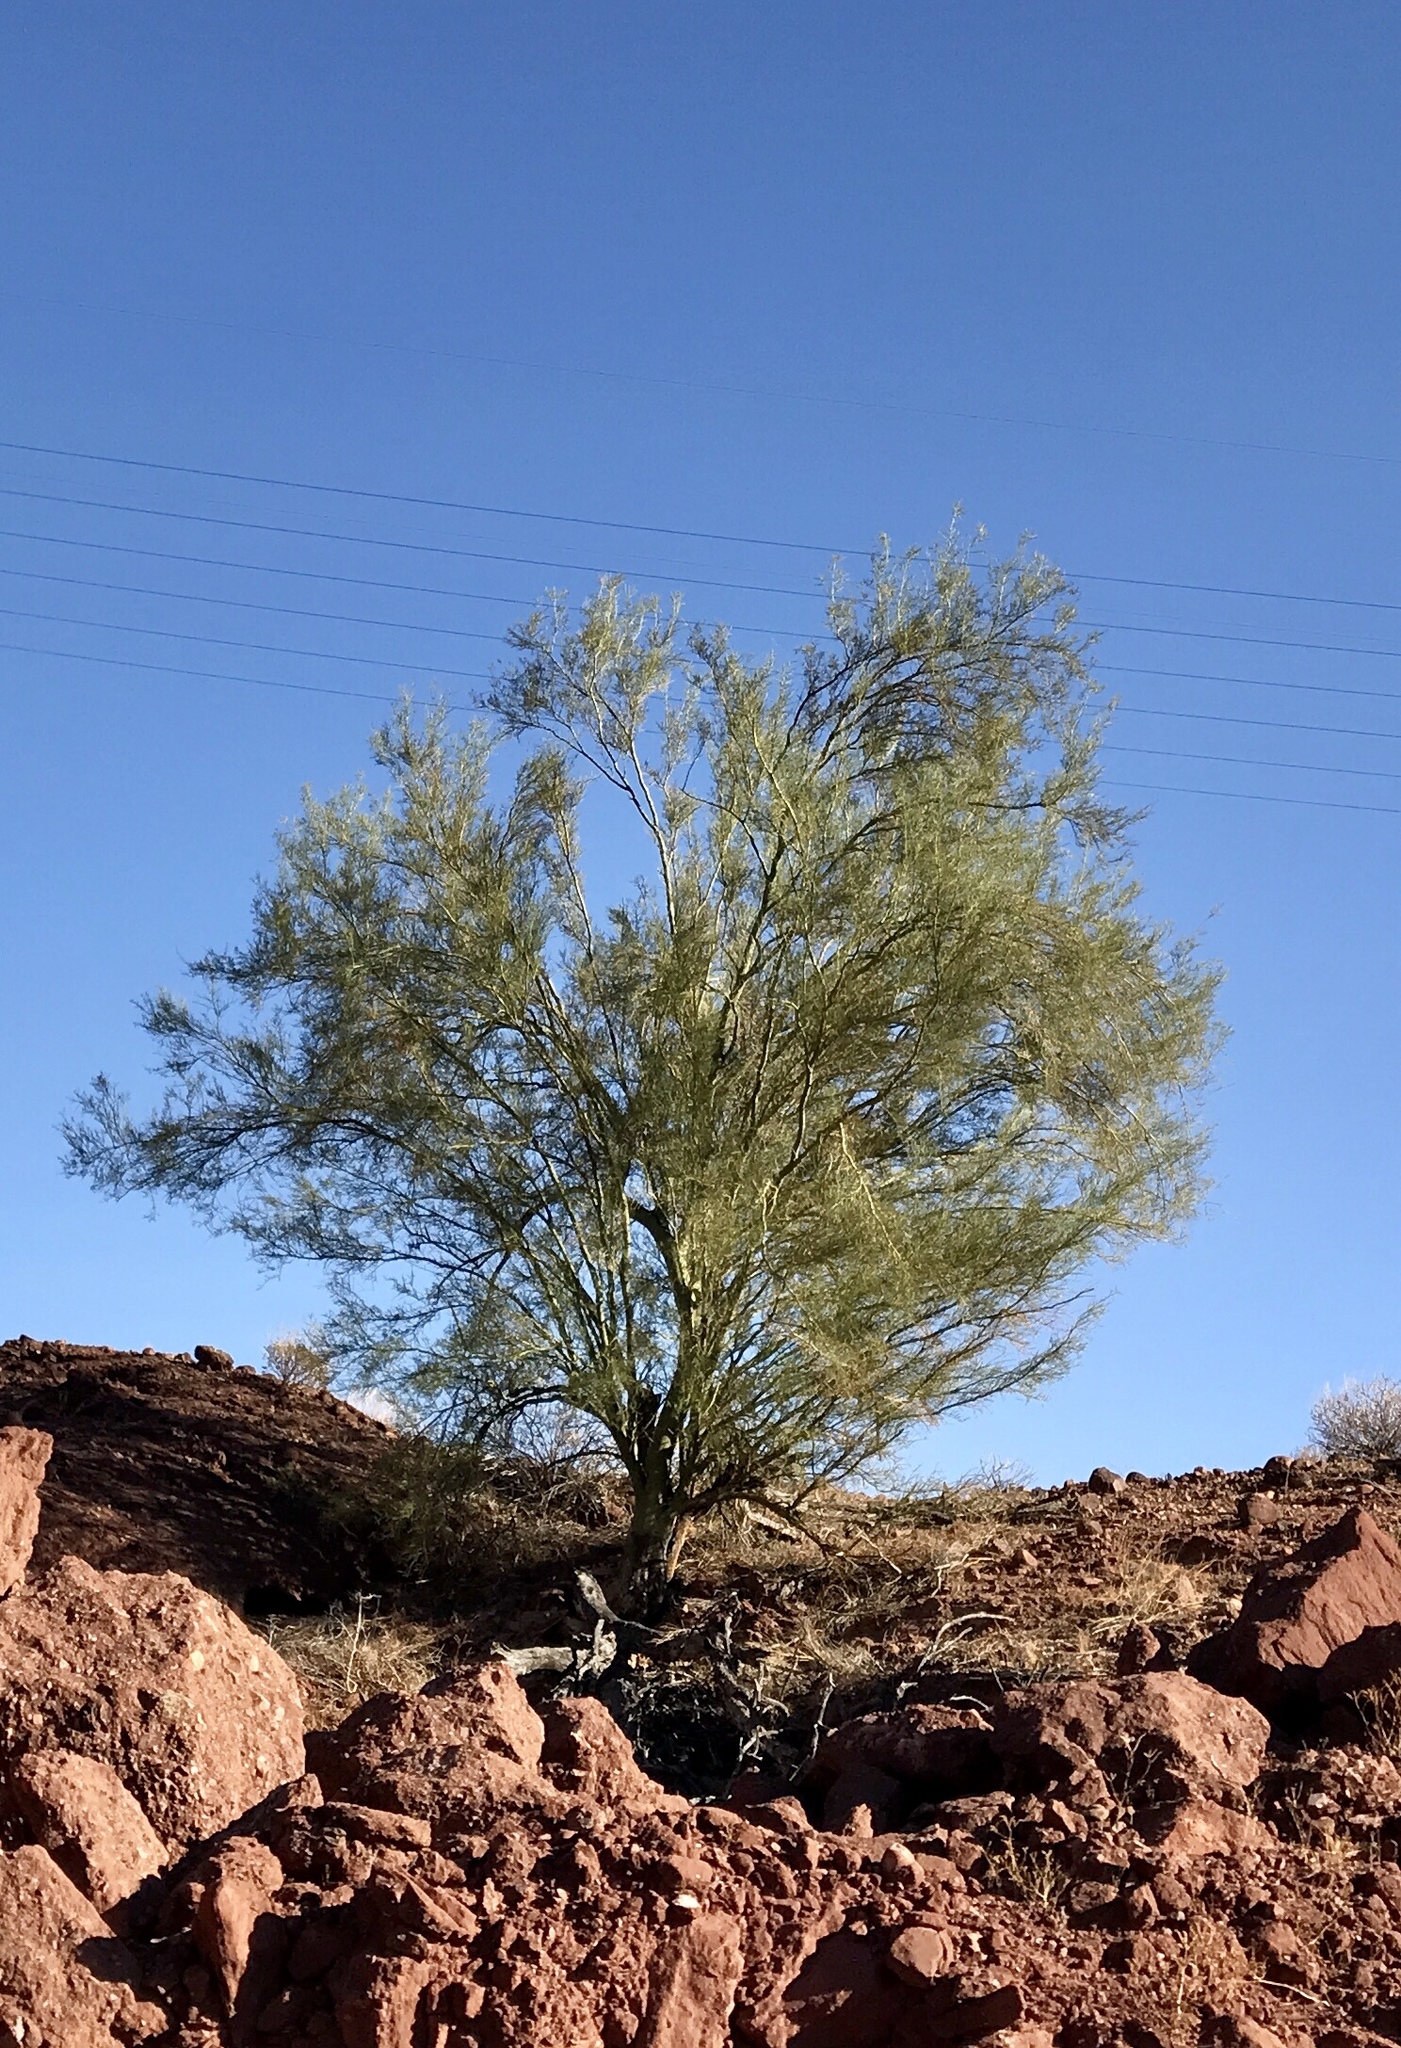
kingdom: Plantae
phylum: Tracheophyta
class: Magnoliopsida
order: Fabales
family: Fabaceae
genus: Parkinsonia
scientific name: Parkinsonia florida
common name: Blue paloverde
